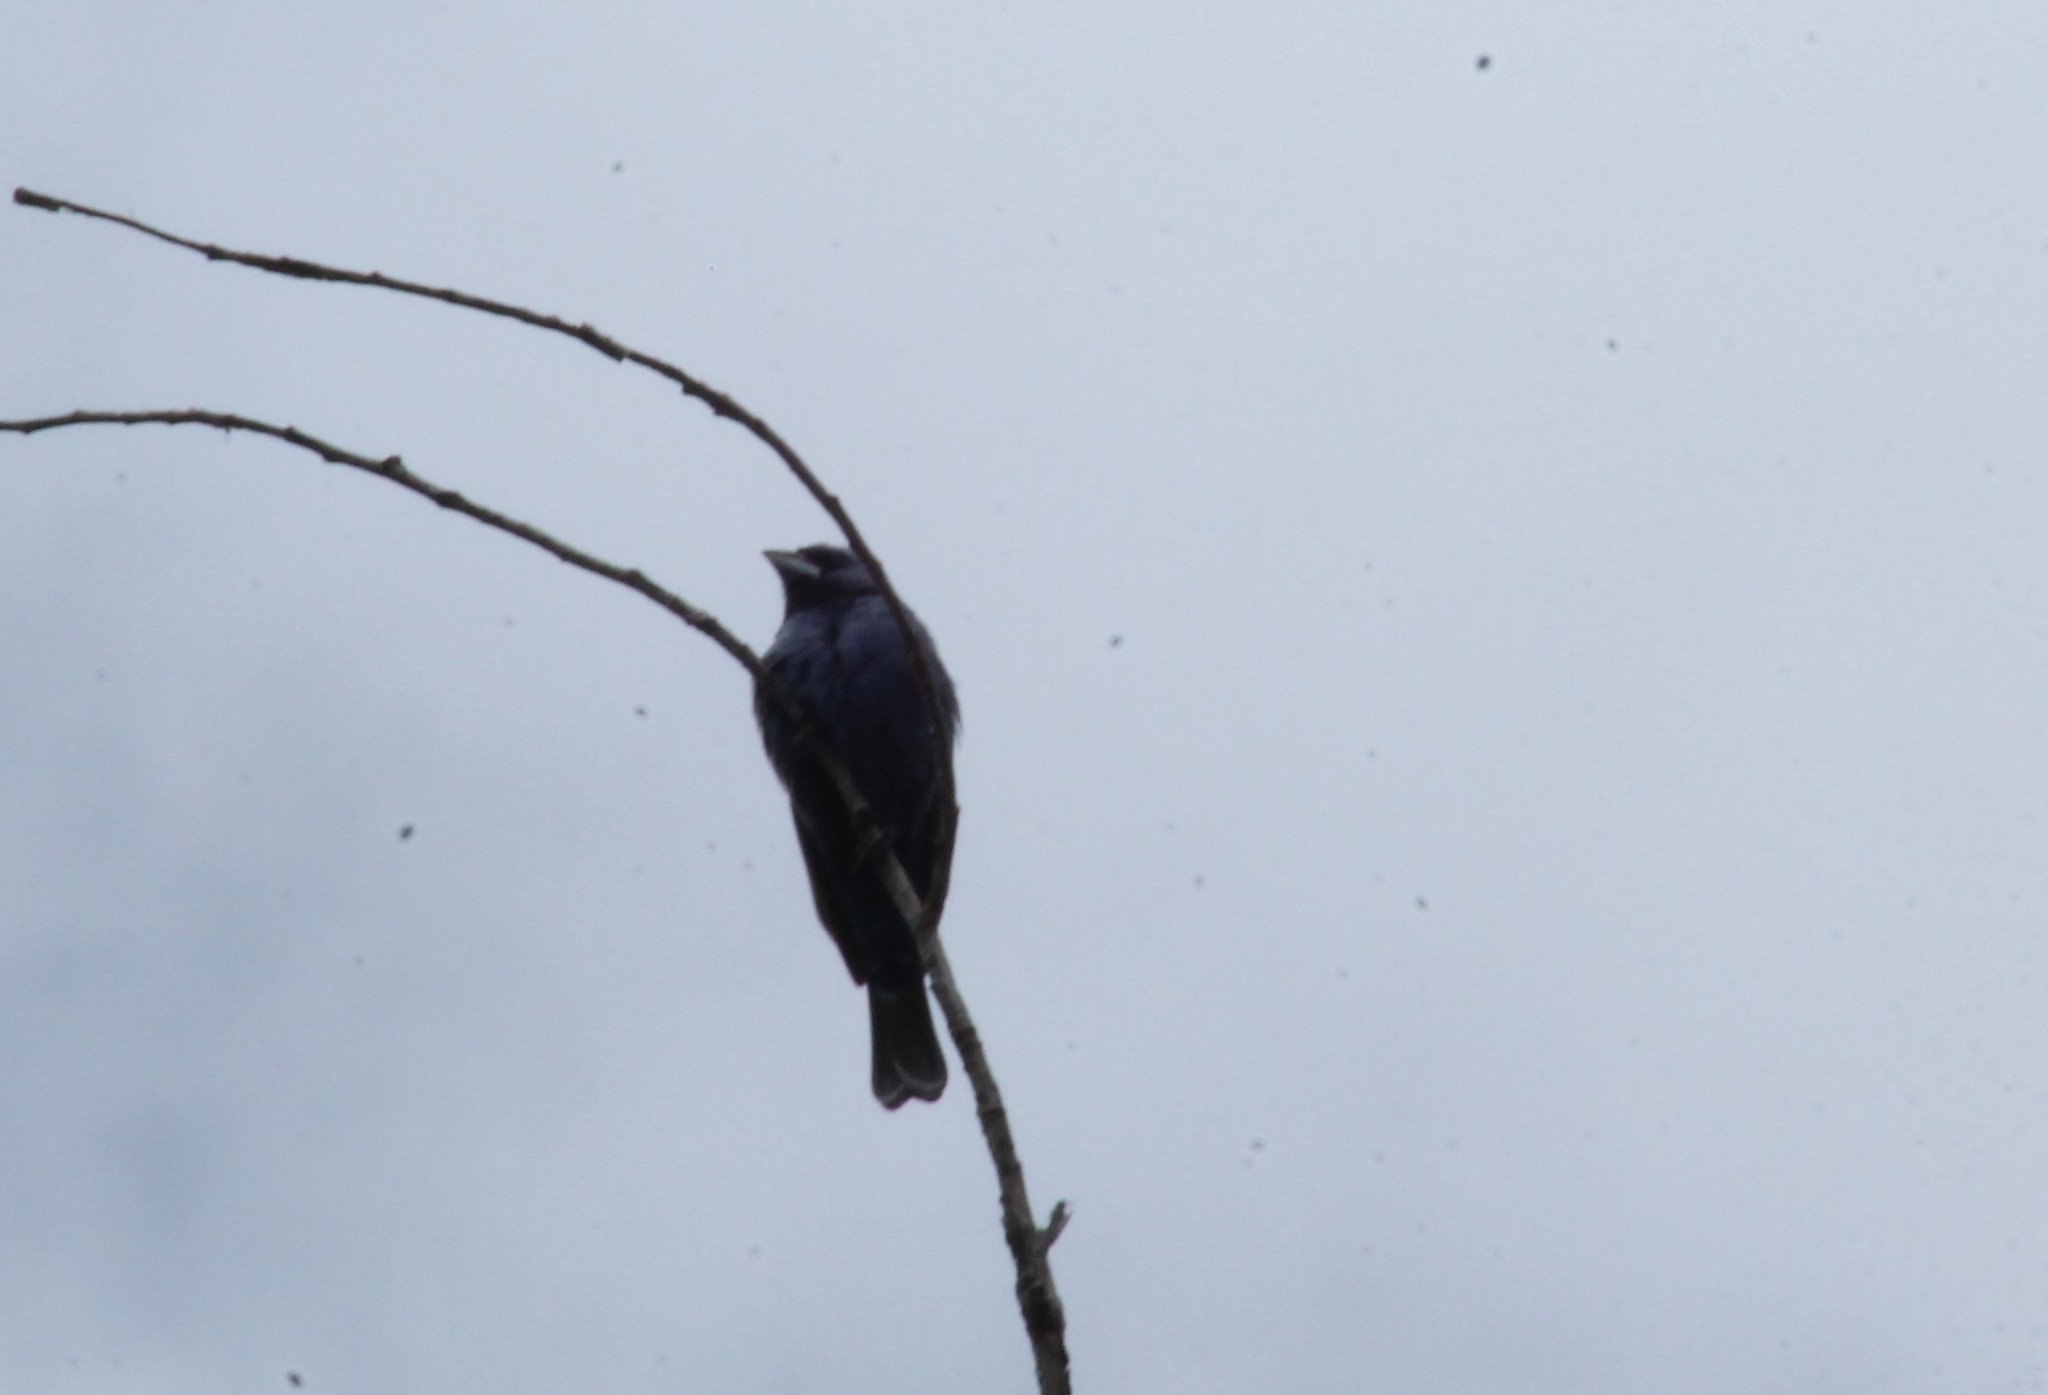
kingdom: Animalia
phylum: Chordata
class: Aves
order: Passeriformes
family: Cardinalidae
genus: Passerina
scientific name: Passerina caerulea
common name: Blue grosbeak
